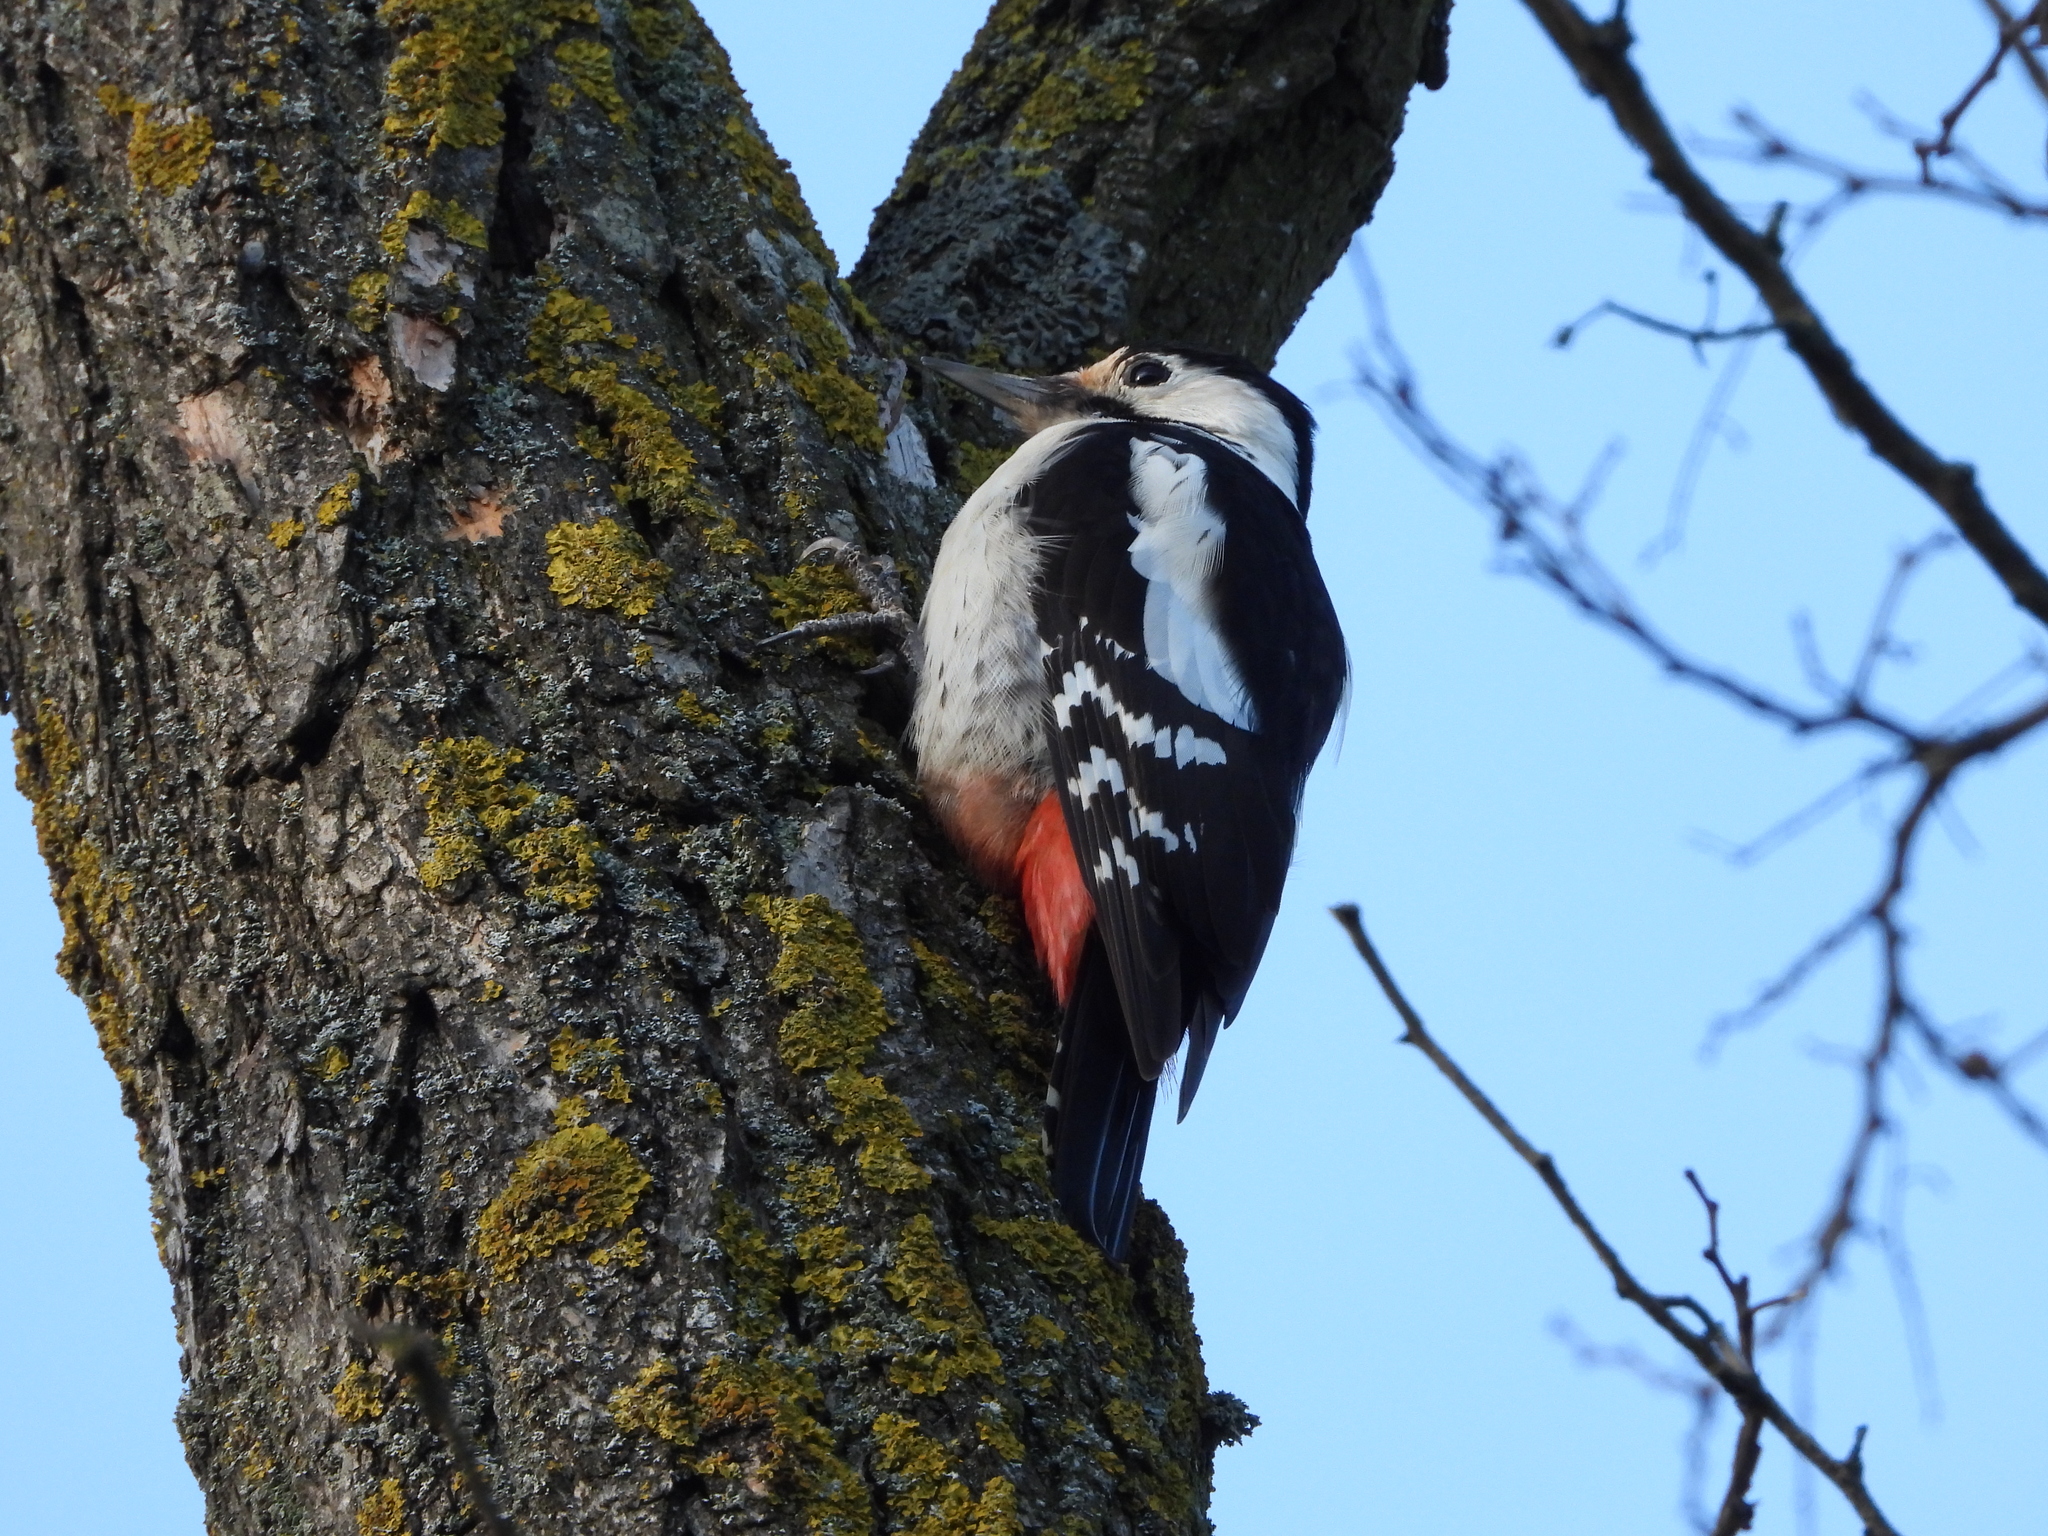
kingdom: Animalia
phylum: Chordata
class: Aves
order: Piciformes
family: Picidae
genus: Dendrocopos
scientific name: Dendrocopos syriacus
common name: Syrian woodpecker
